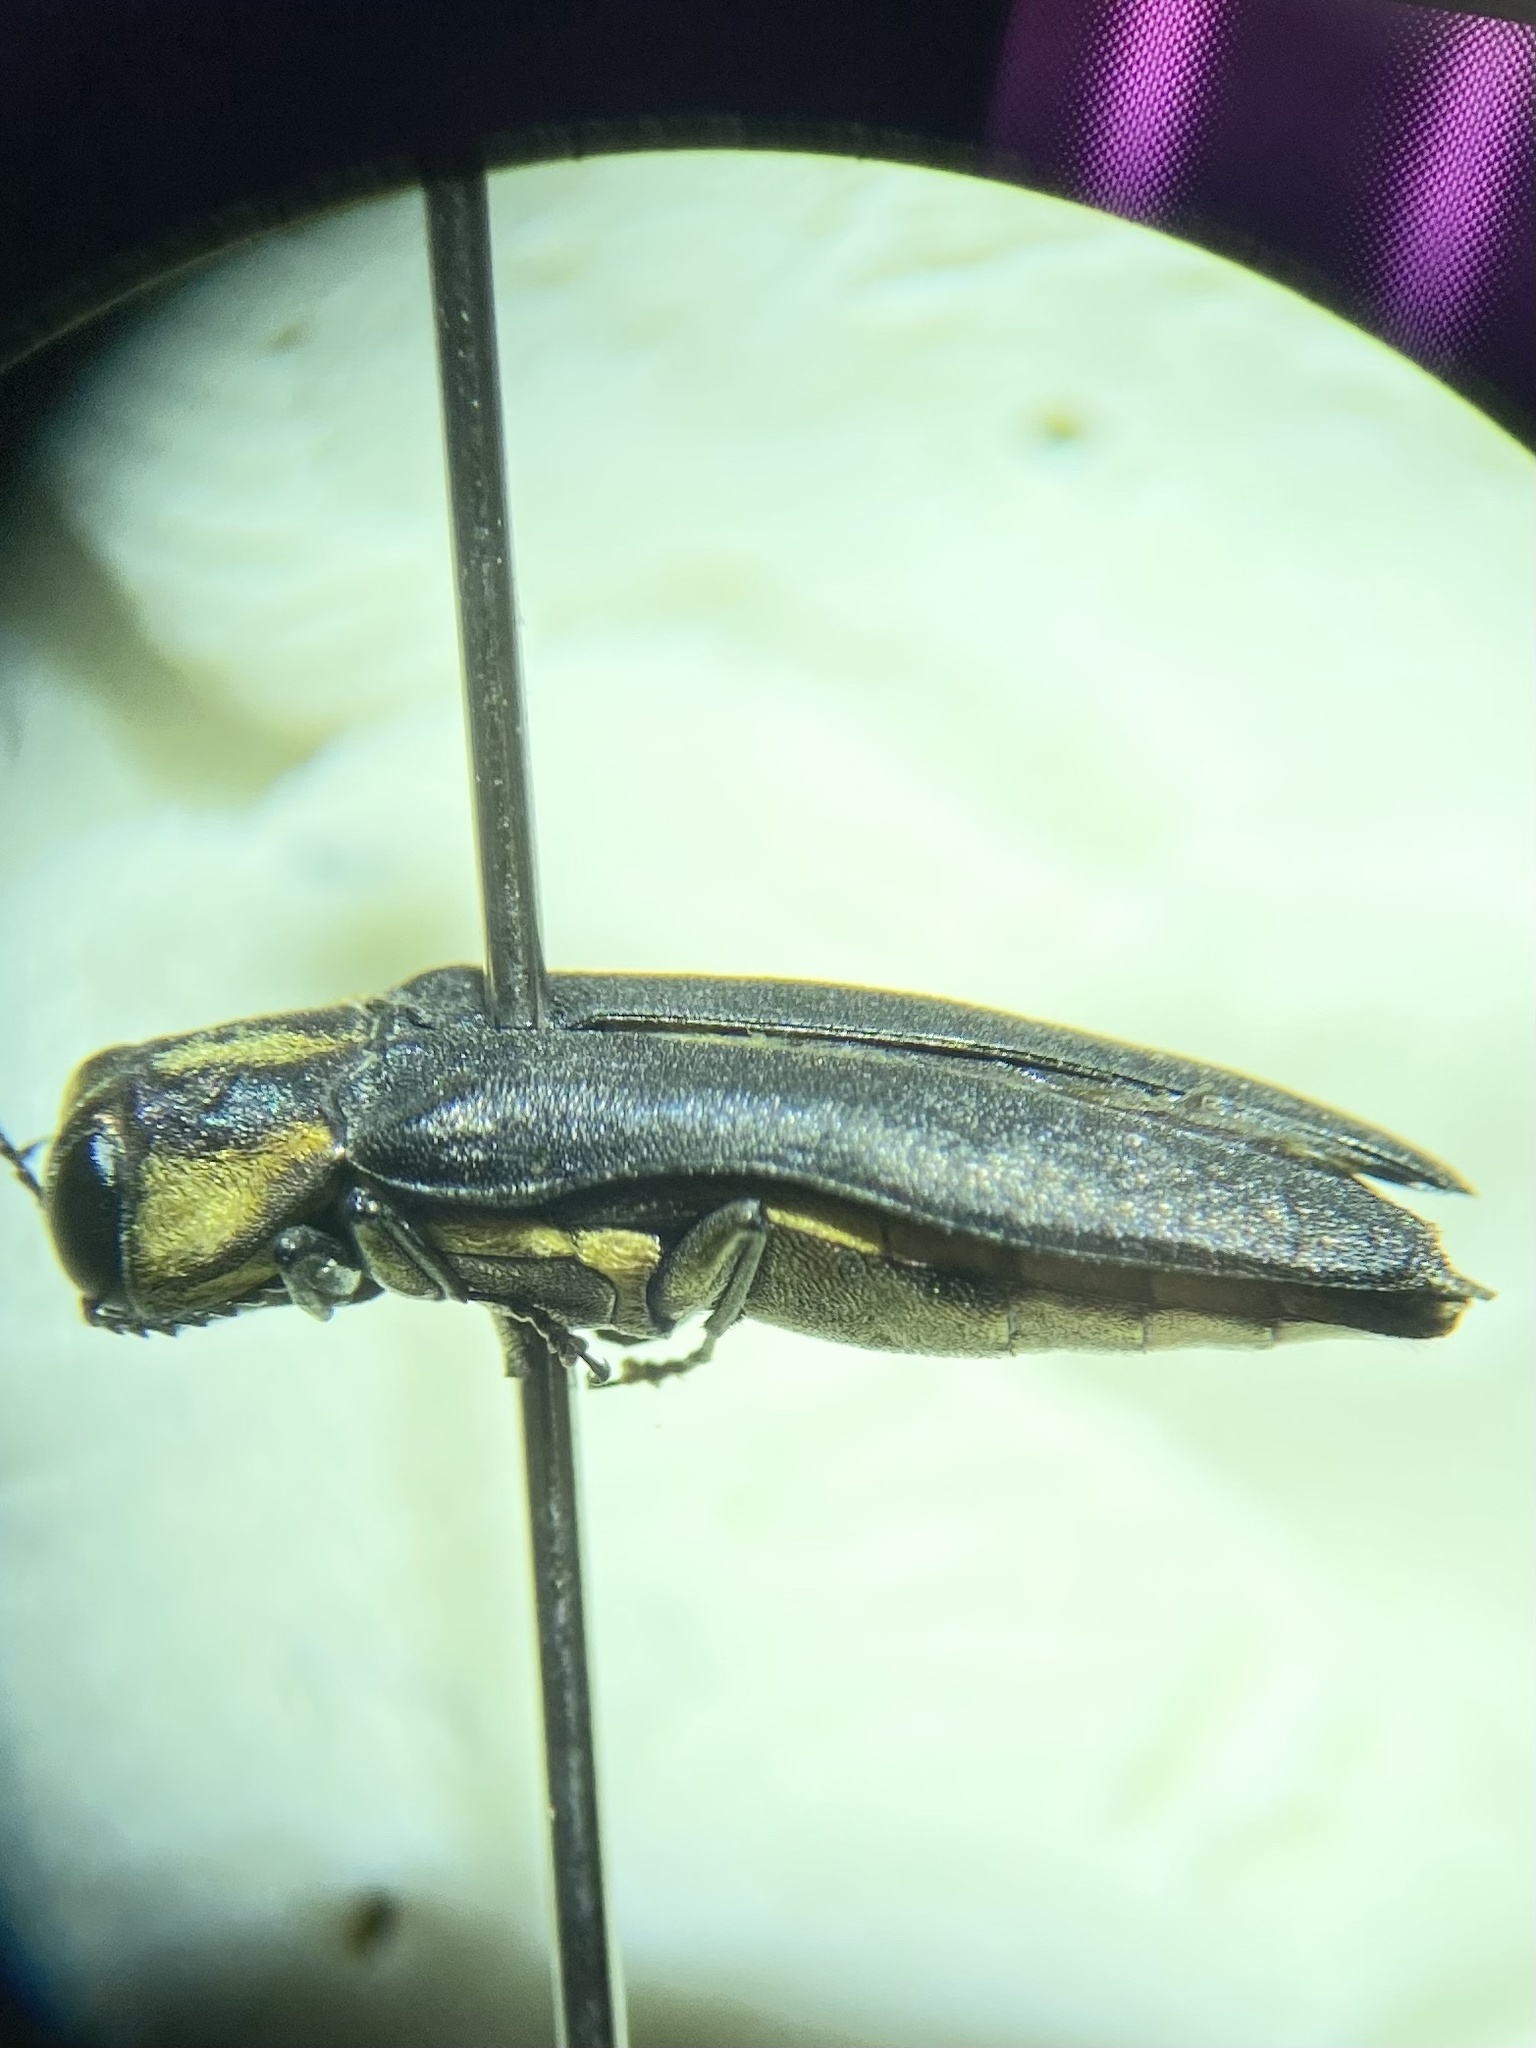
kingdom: Animalia
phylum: Arthropoda
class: Insecta
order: Coleoptera
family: Buprestidae
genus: Agrilus
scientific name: Agrilus audax
